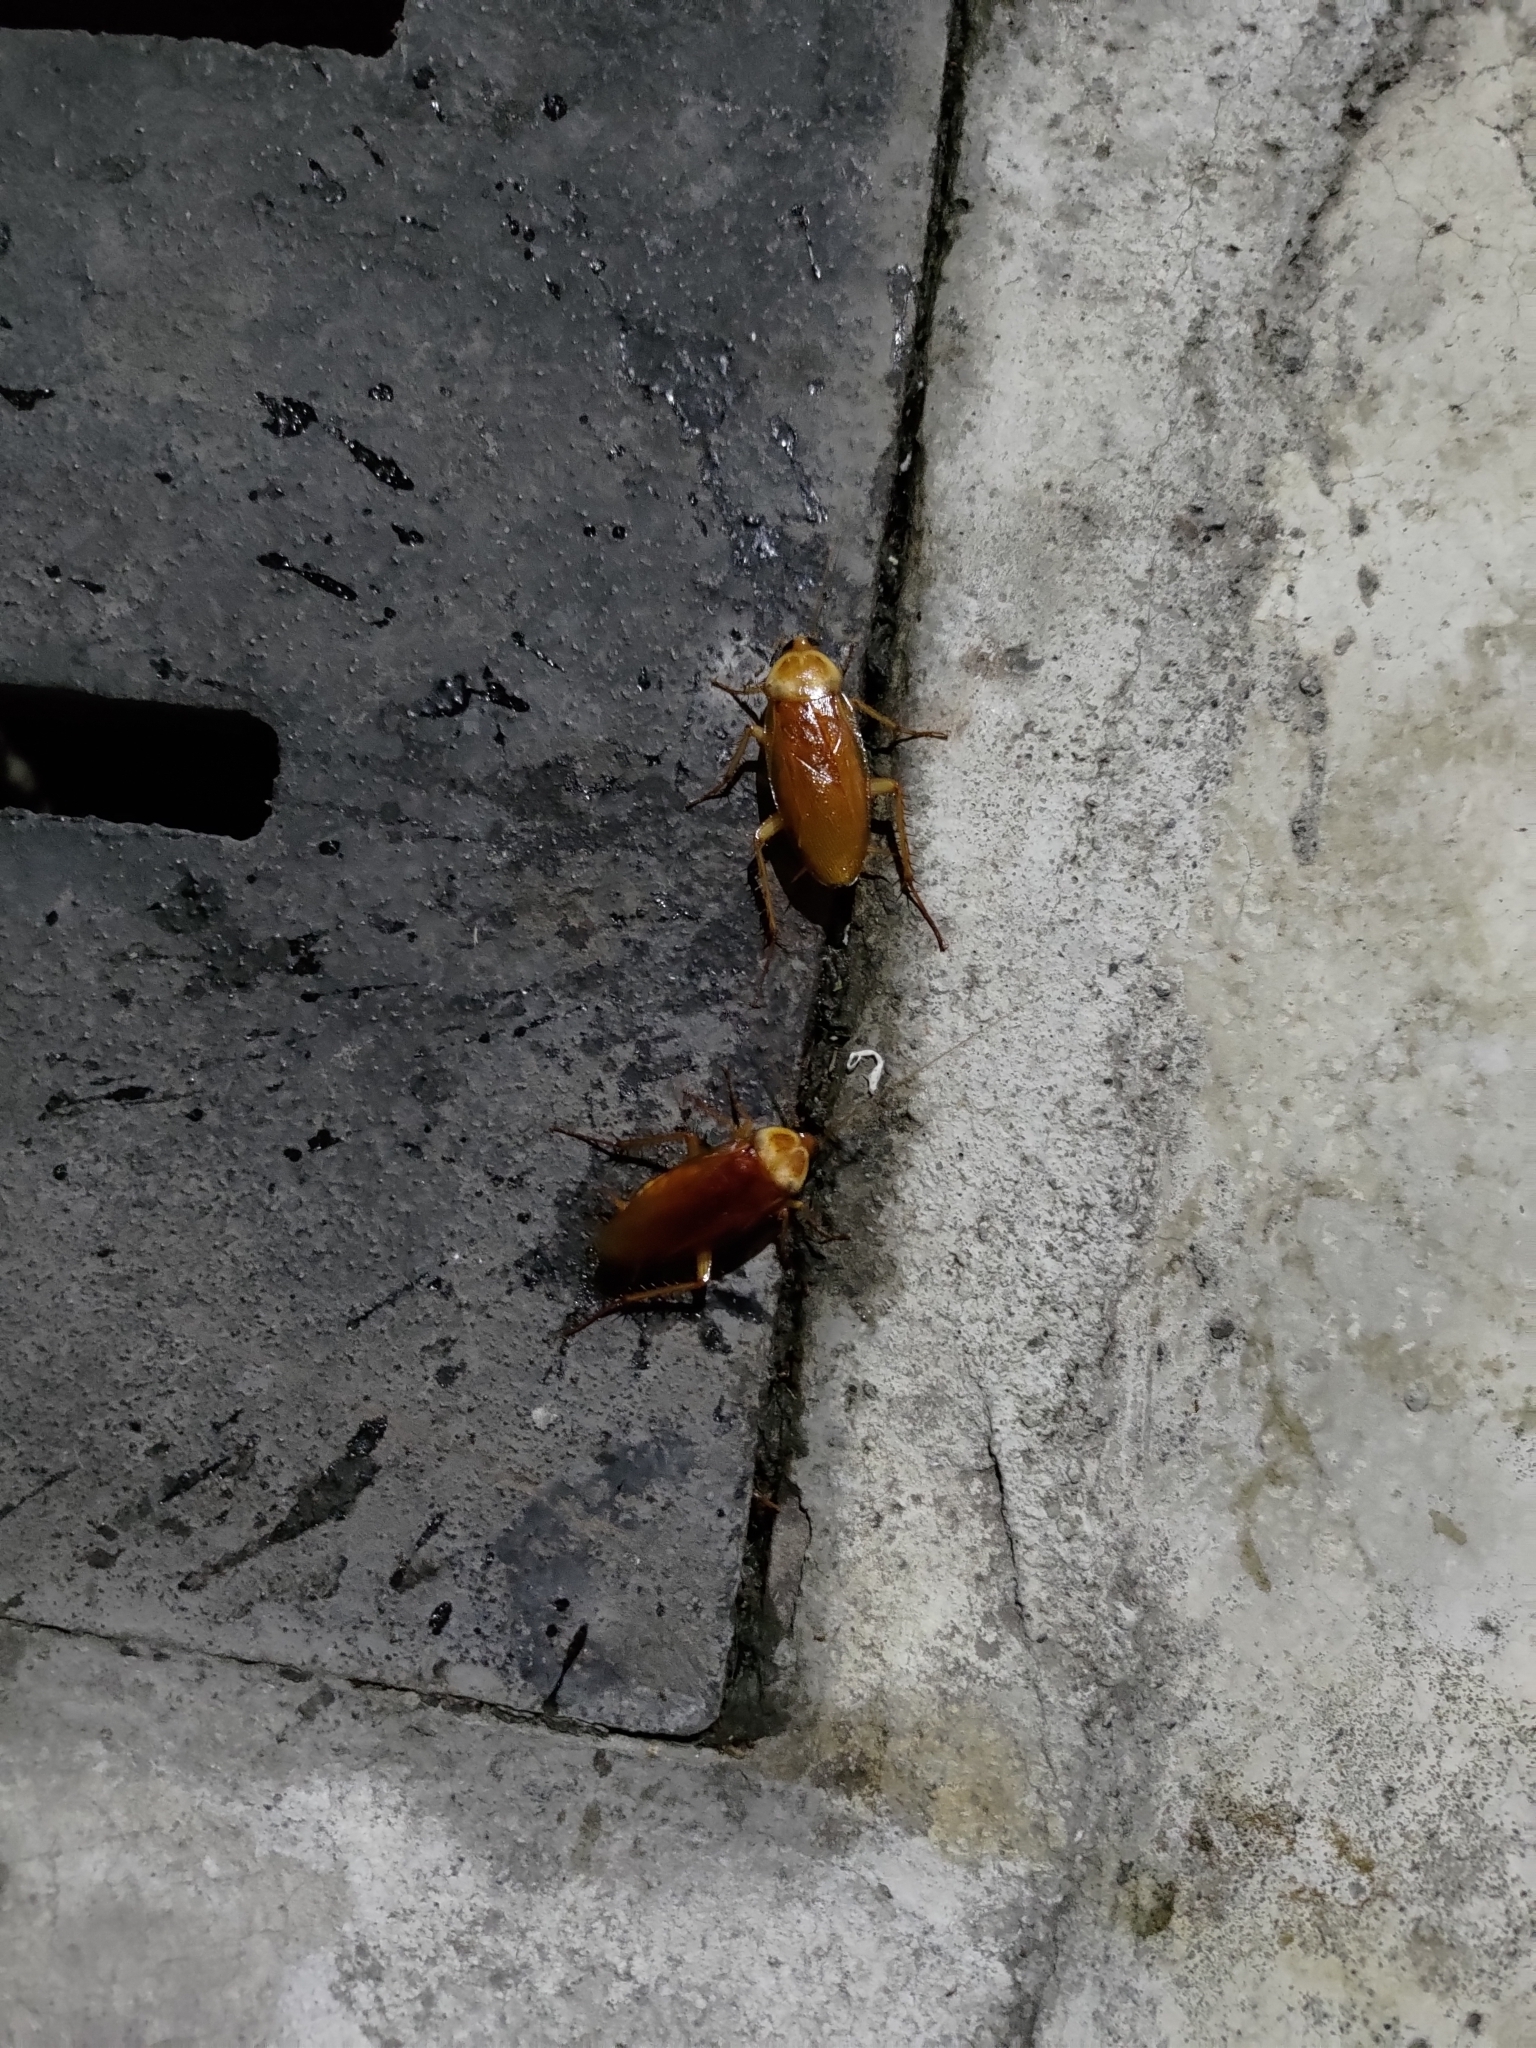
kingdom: Animalia
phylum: Arthropoda
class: Insecta
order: Blattodea
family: Blattidae
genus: Periplaneta
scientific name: Periplaneta americana
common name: American cockroach
